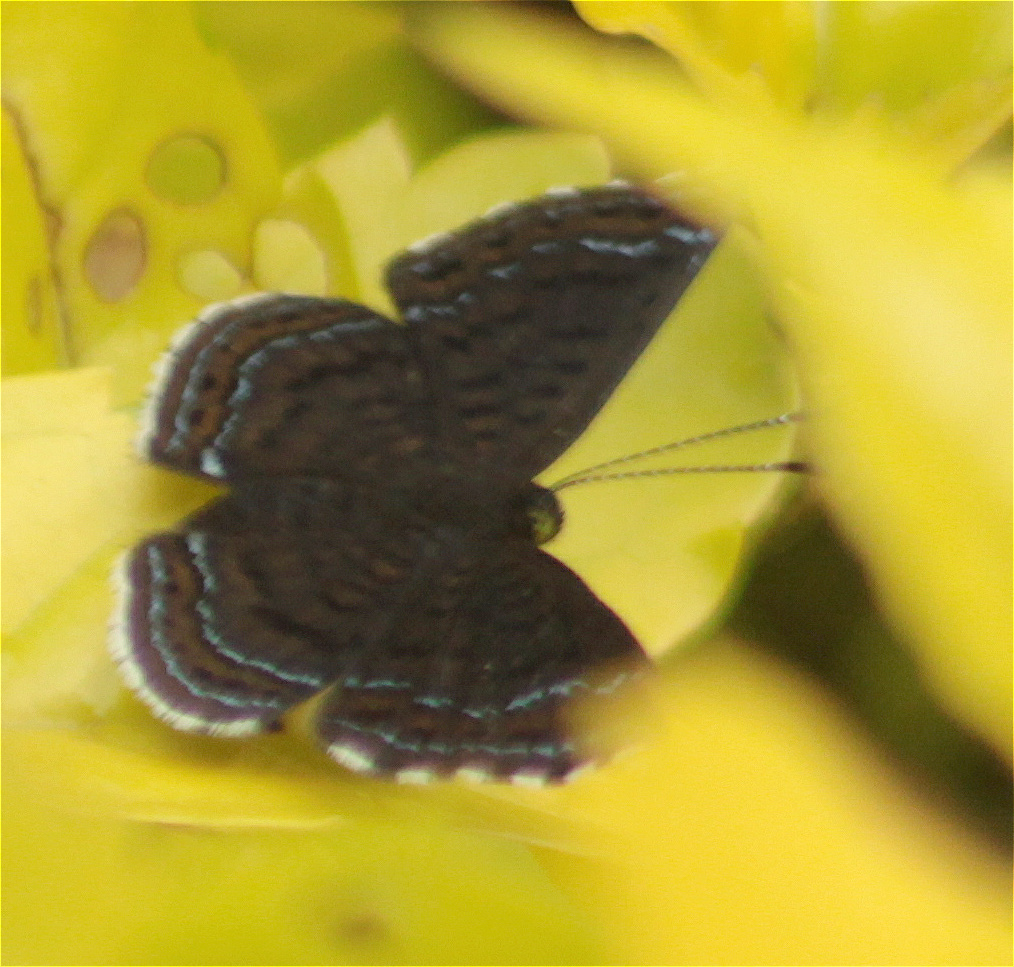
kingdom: Animalia
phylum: Arthropoda
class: Insecta
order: Lepidoptera
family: Riodinidae
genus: Detritivora
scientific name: Detritivora
